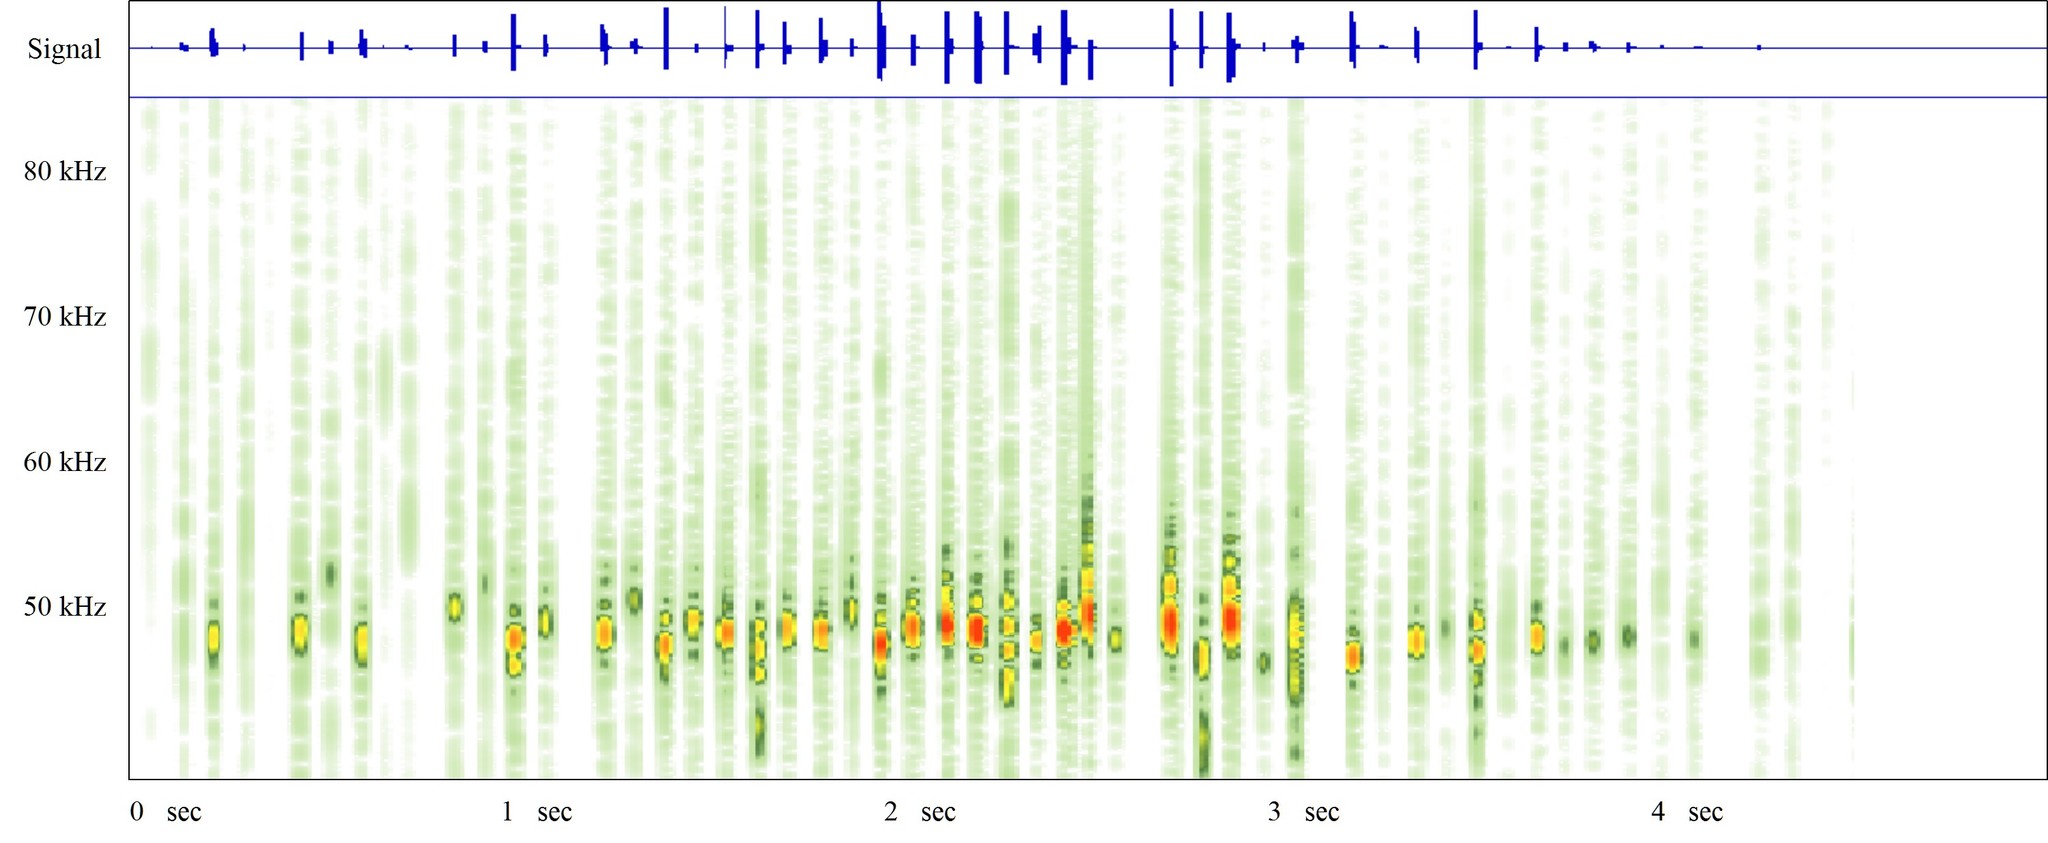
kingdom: Animalia
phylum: Chordata
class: Mammalia
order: Chiroptera
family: Vespertilionidae
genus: Pipistrellus
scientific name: Pipistrellus pygmaeus
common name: Soprano pipistrelle
